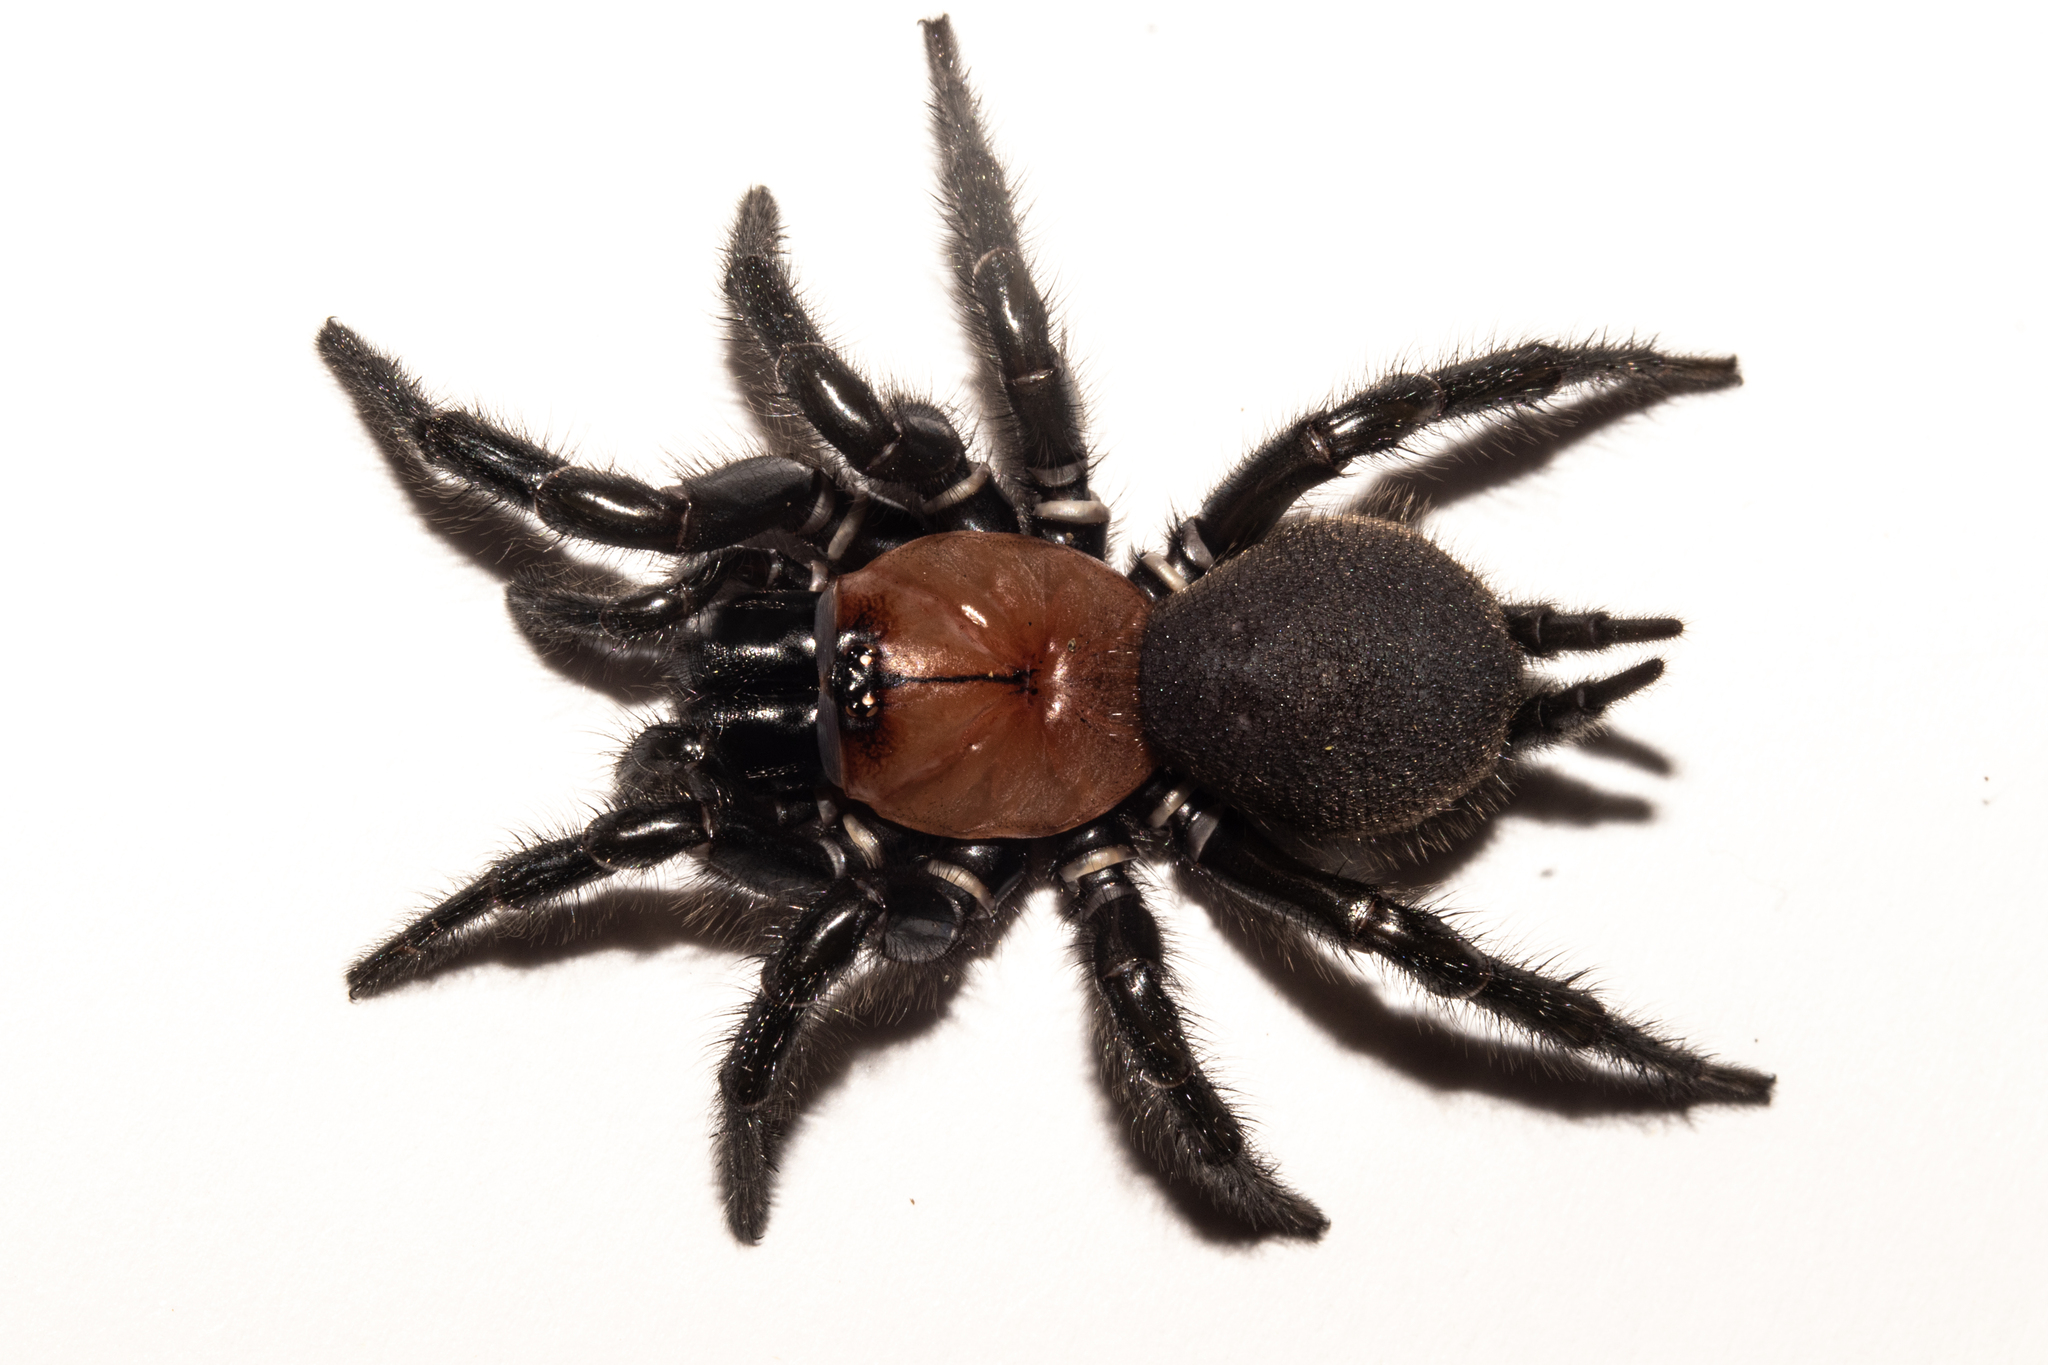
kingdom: Animalia
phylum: Arthropoda
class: Arachnida
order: Araneae
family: Porrhothelidae
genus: Porrhothele
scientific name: Porrhothele antipodiana
